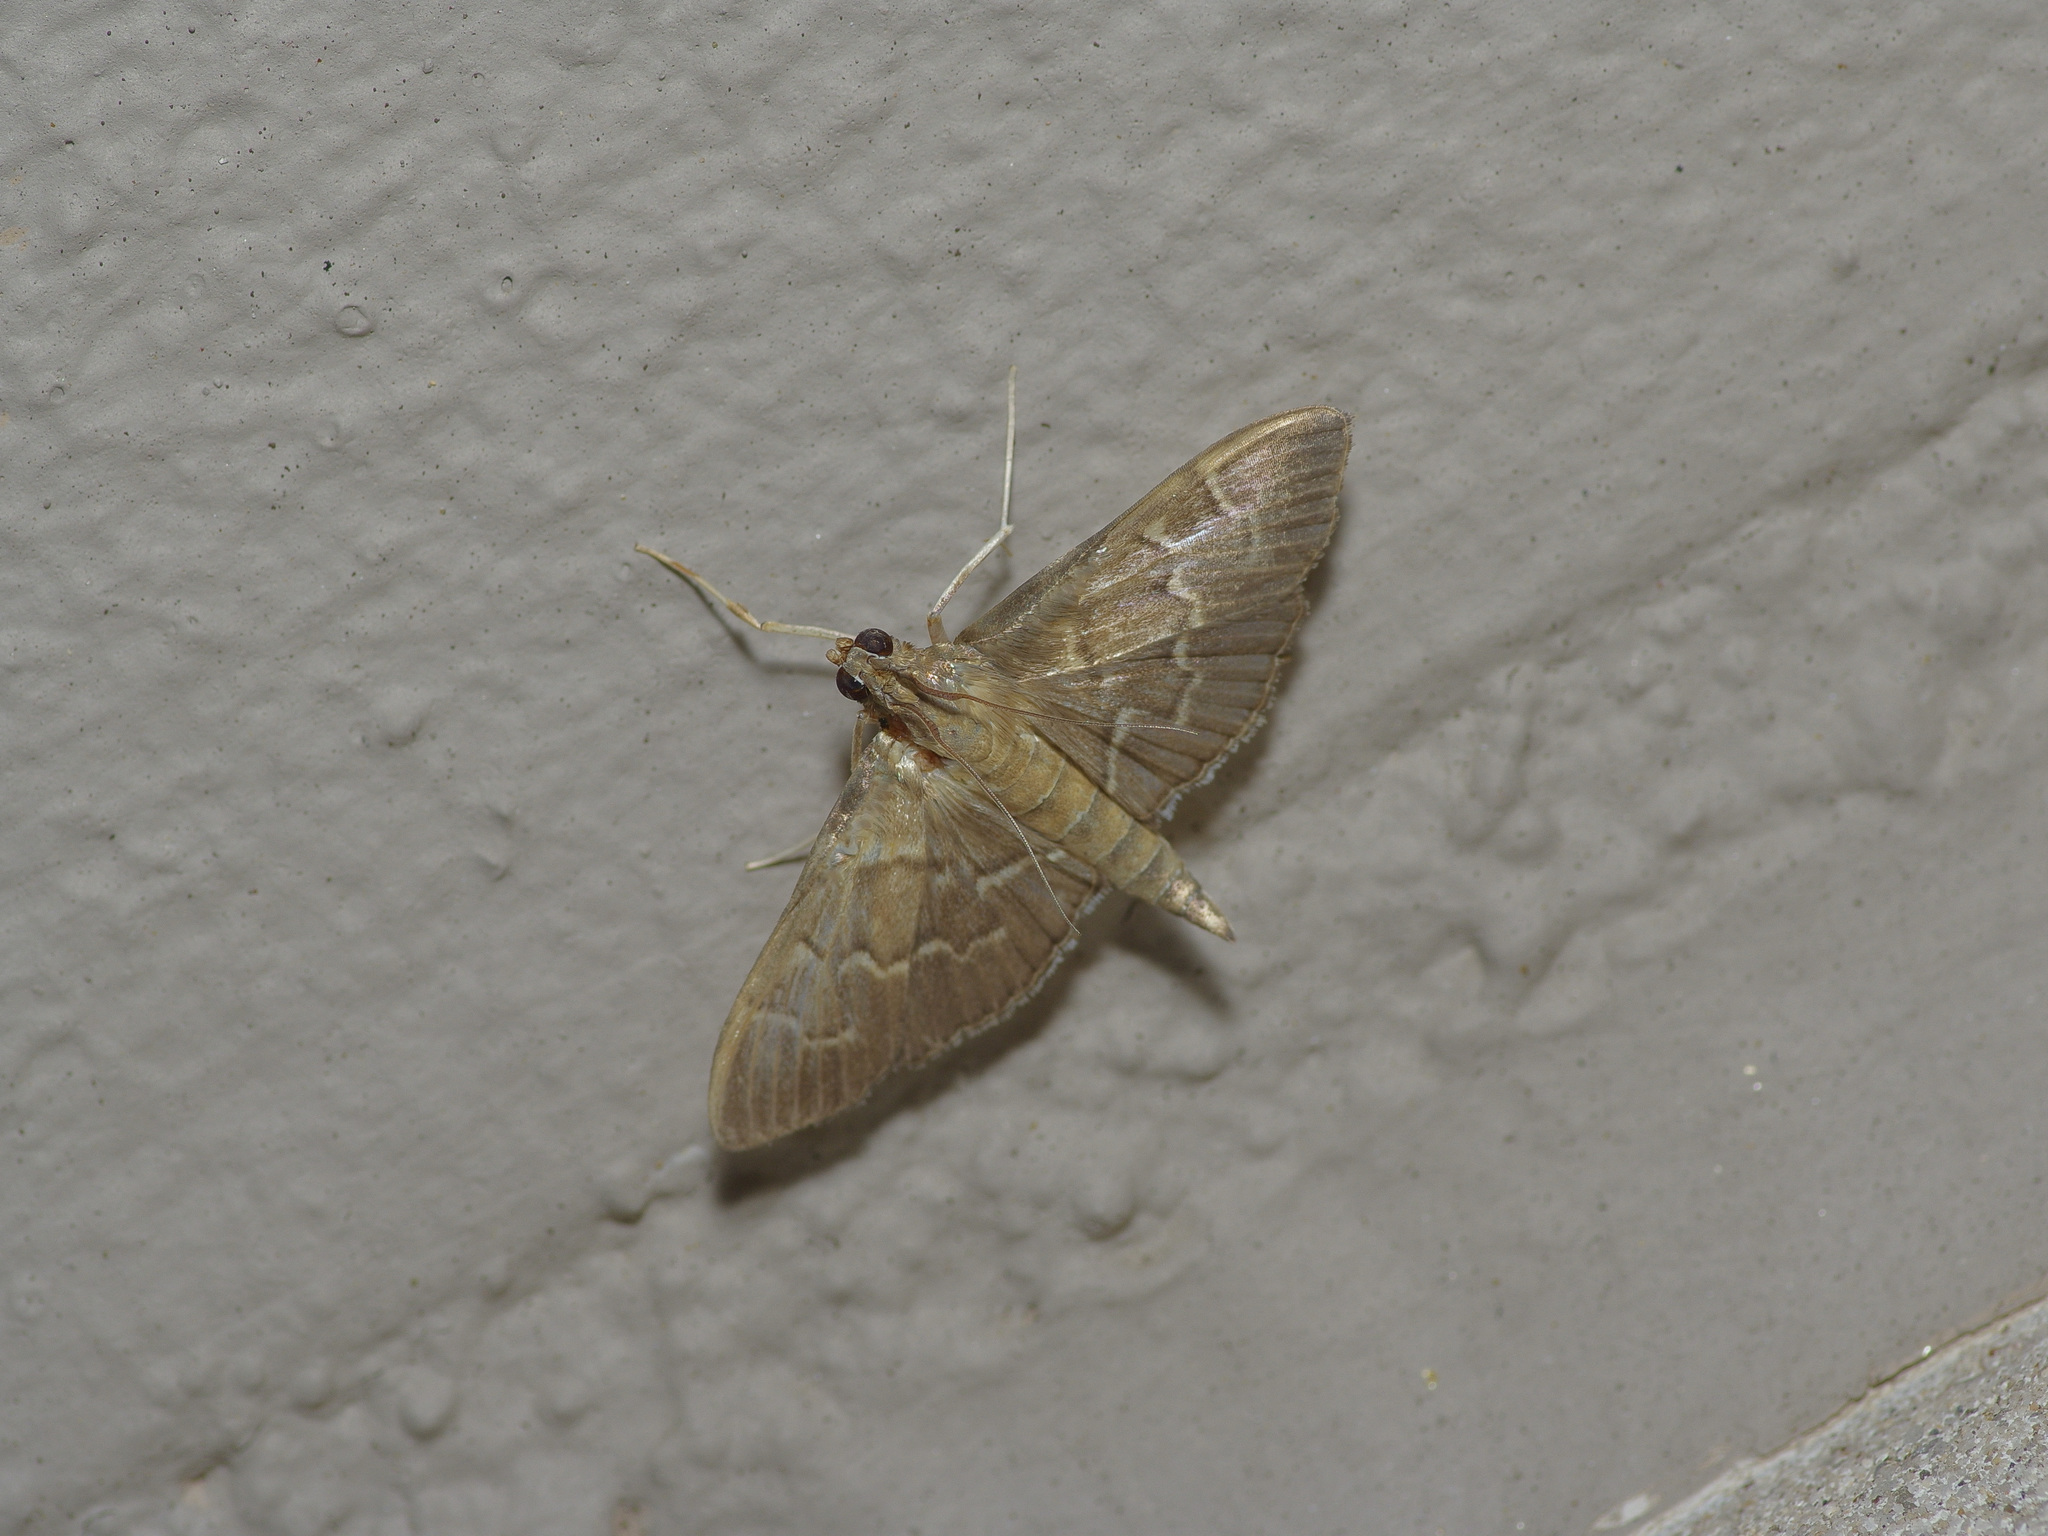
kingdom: Animalia
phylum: Arthropoda
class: Insecta
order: Lepidoptera
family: Crambidae
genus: Pilocrocis
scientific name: Pilocrocis ramentalis
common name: Scraped pilocrocis
